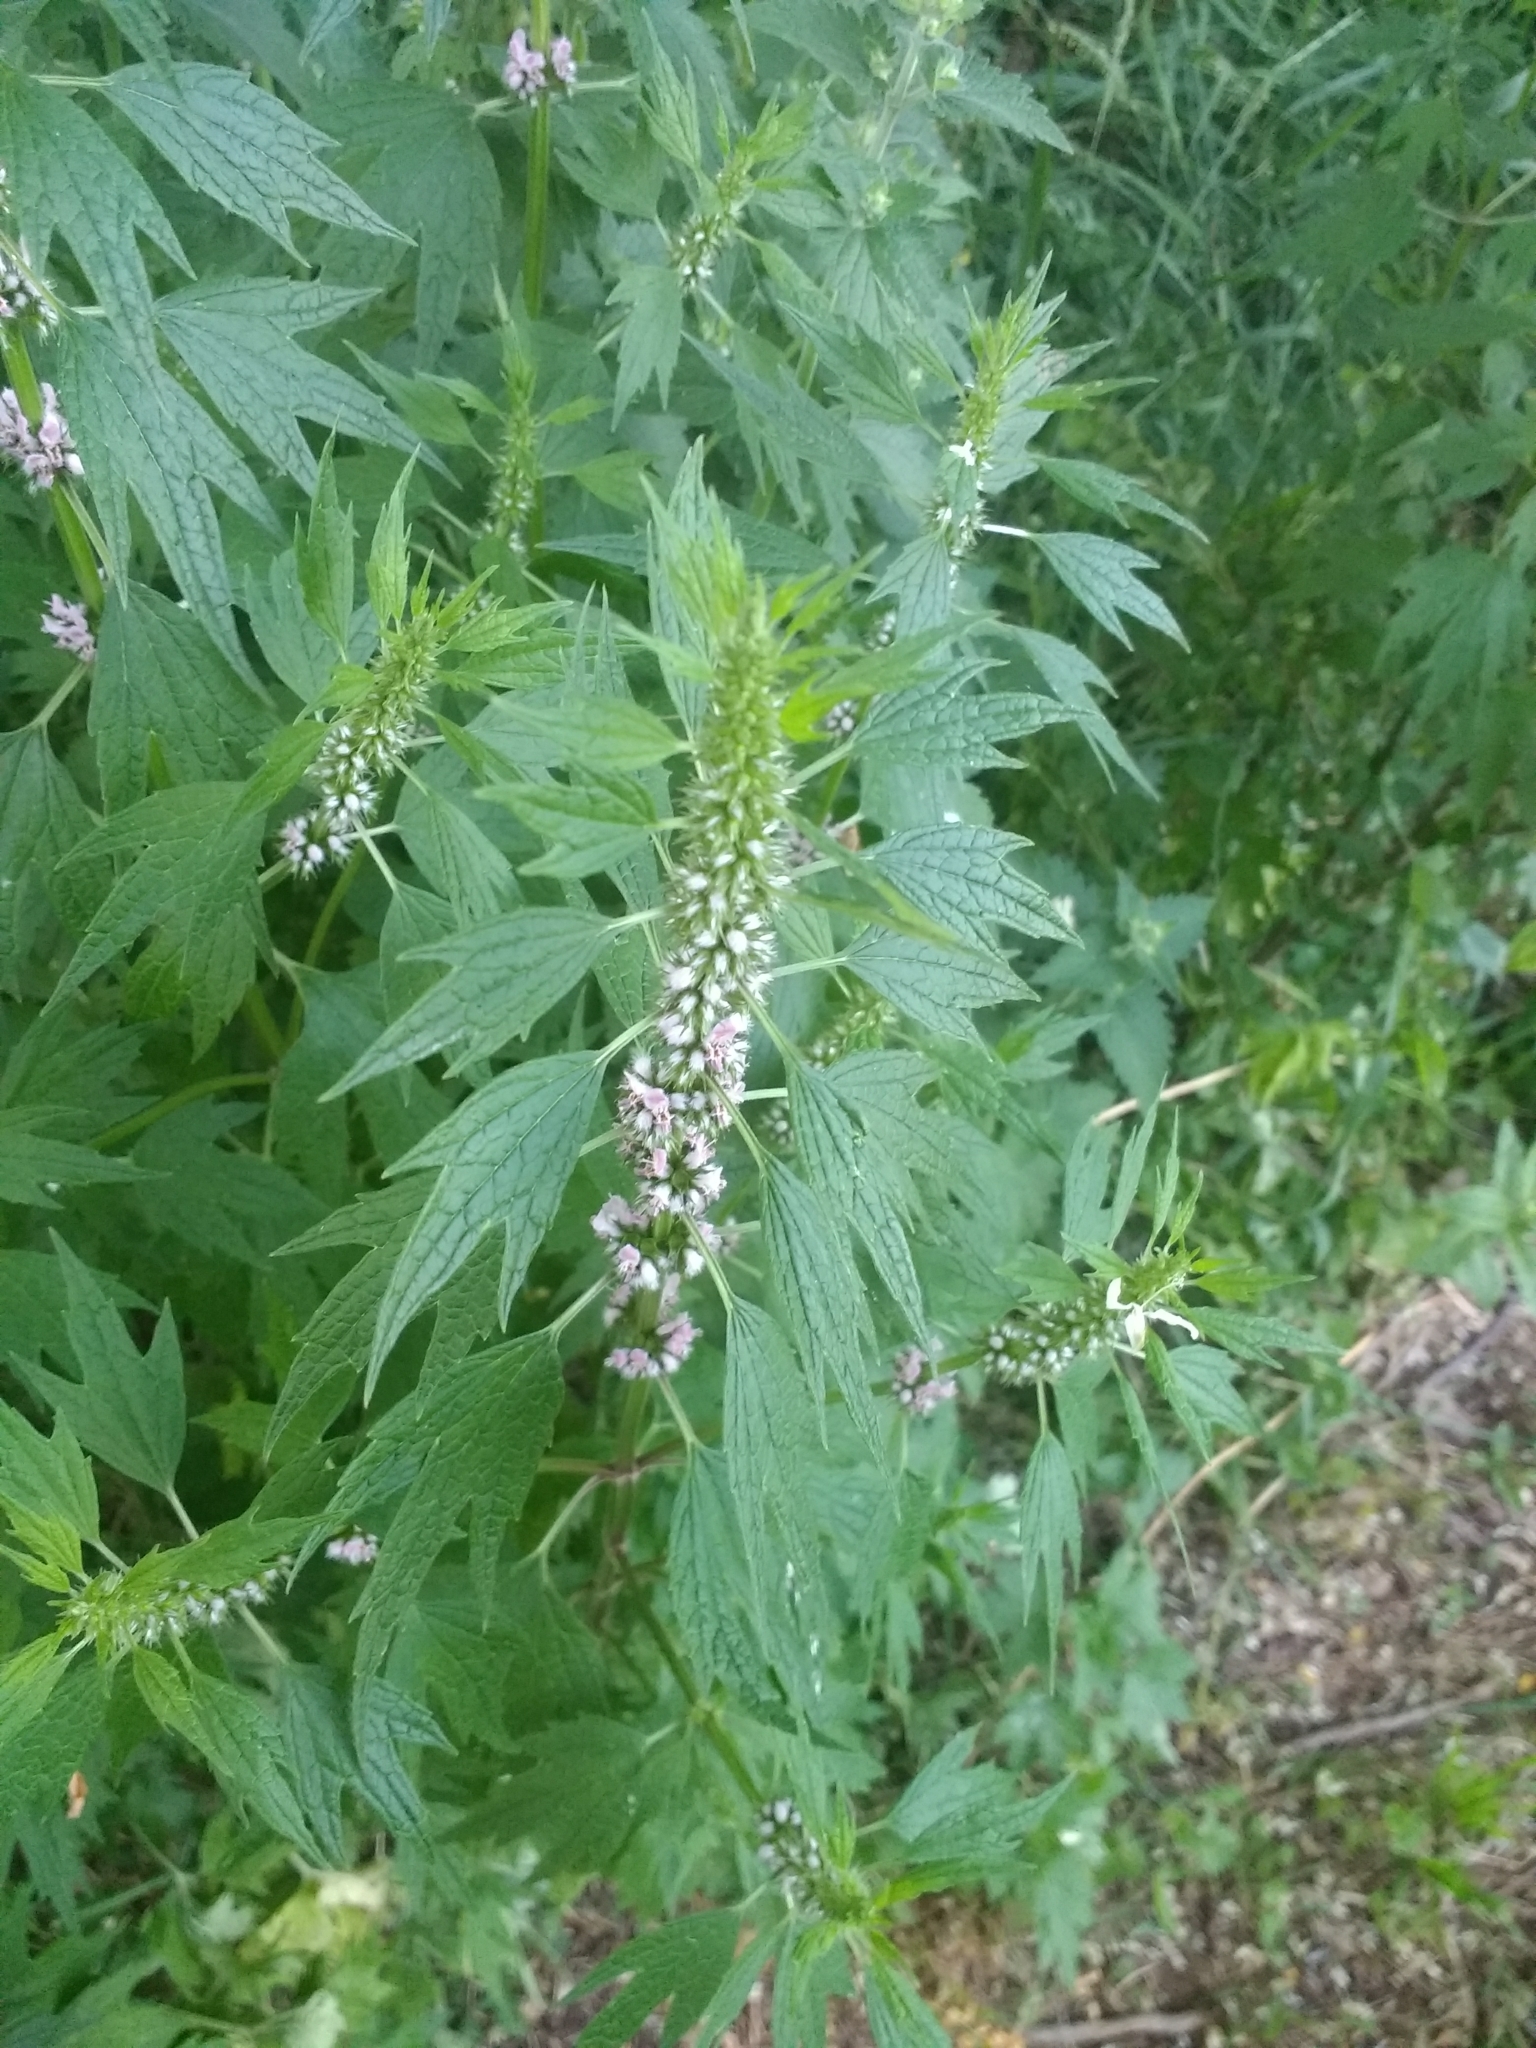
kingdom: Plantae
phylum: Tracheophyta
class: Magnoliopsida
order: Lamiales
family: Lamiaceae
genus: Leonurus
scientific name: Leonurus cardiaca
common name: Motherwort
